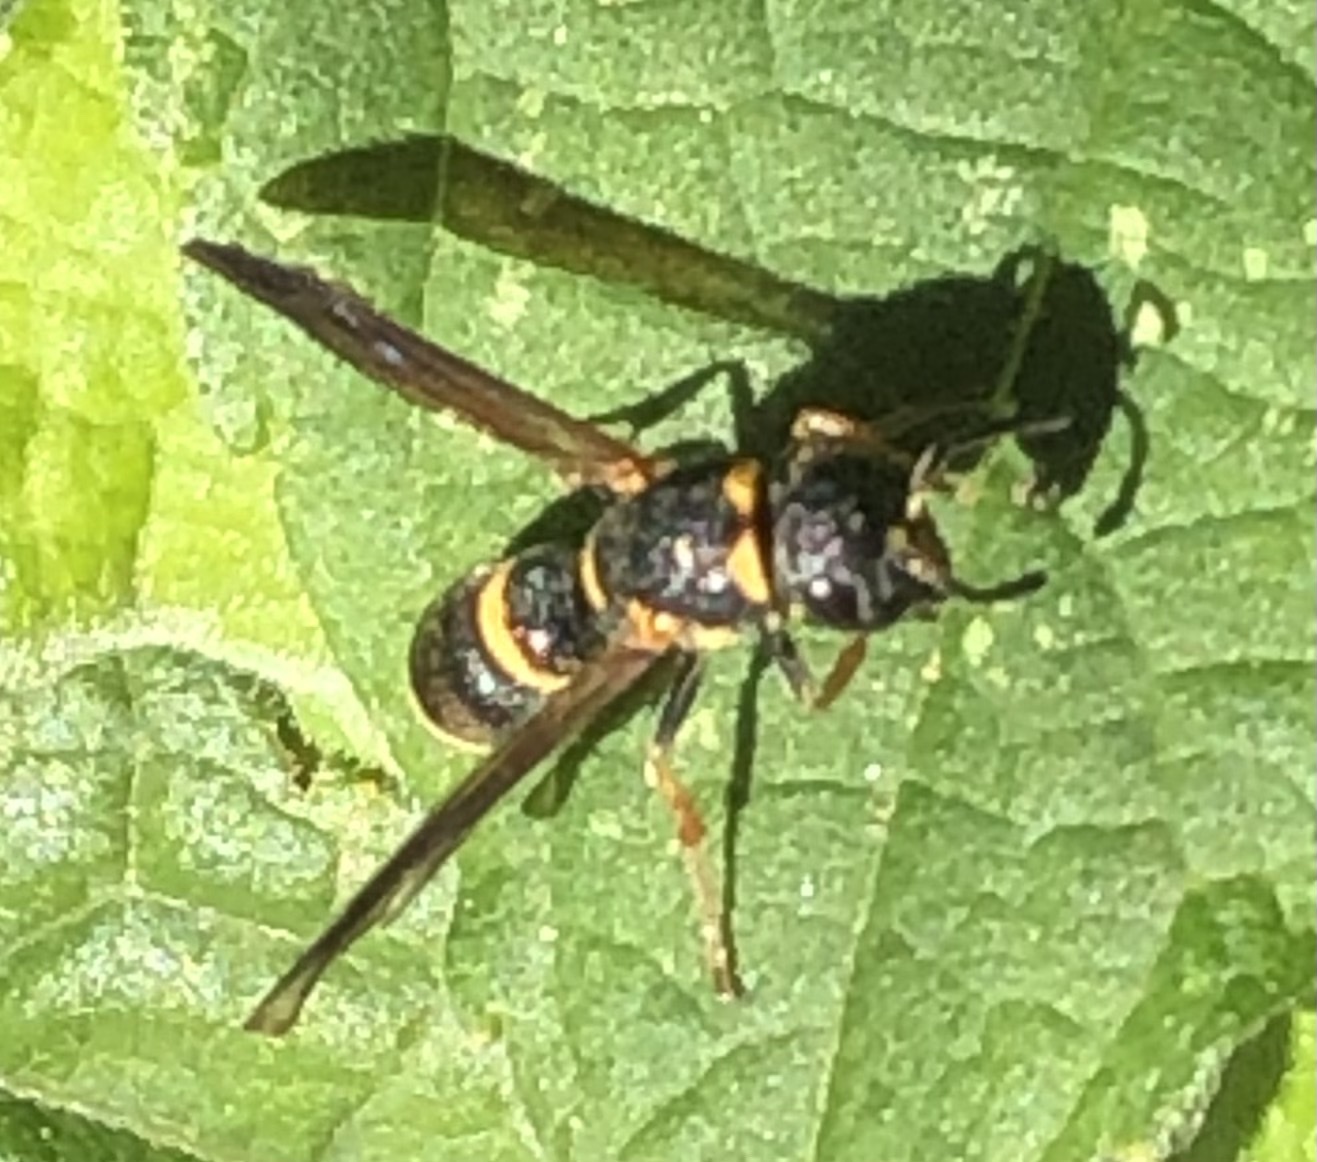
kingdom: Animalia
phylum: Arthropoda
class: Insecta
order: Hymenoptera
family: Eumenidae
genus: Parancistrocerus
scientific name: Parancistrocerus perennis
